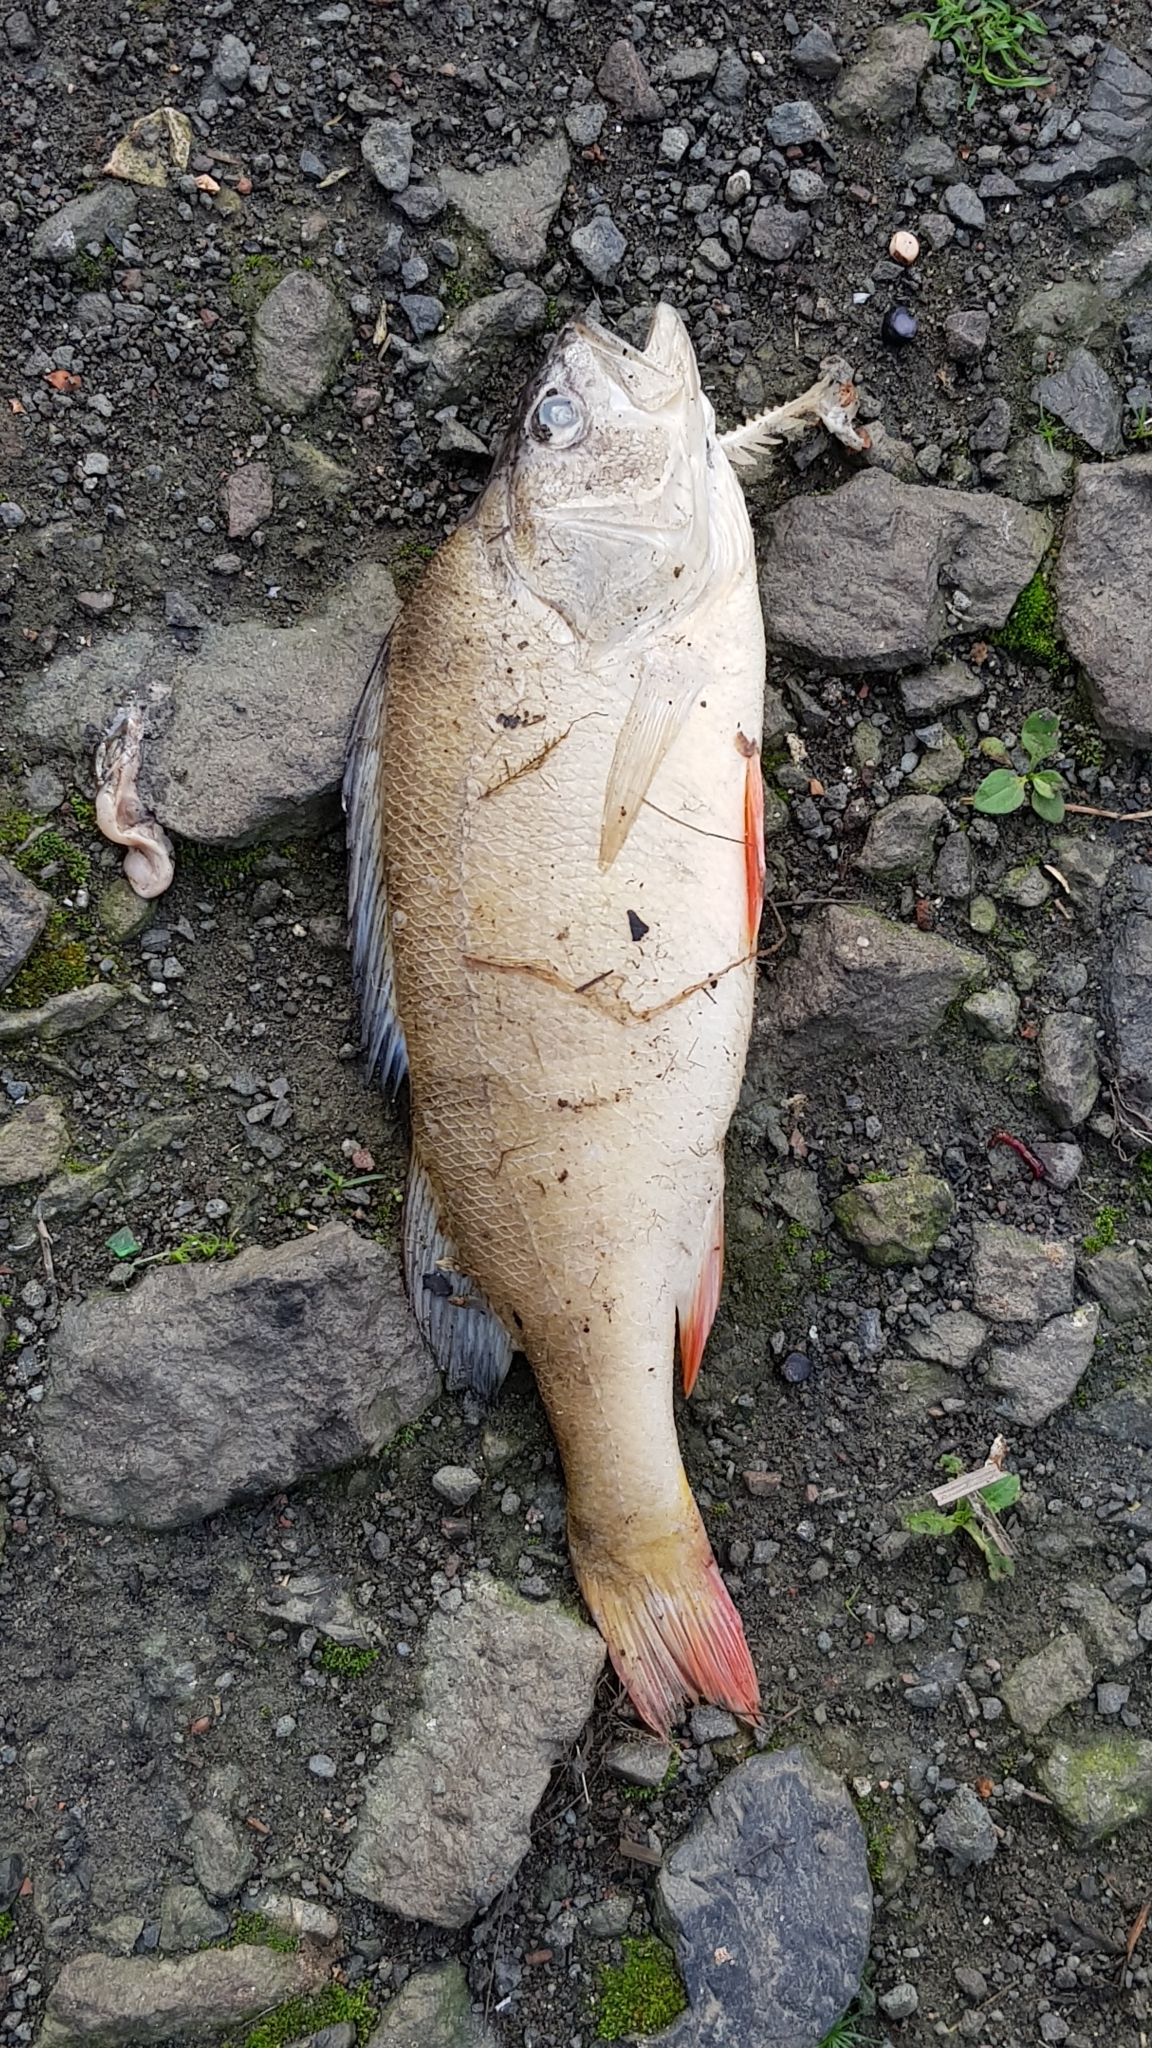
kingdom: Animalia
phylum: Chordata
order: Perciformes
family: Percidae
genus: Perca
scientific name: Perca fluviatilis
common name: Perch
